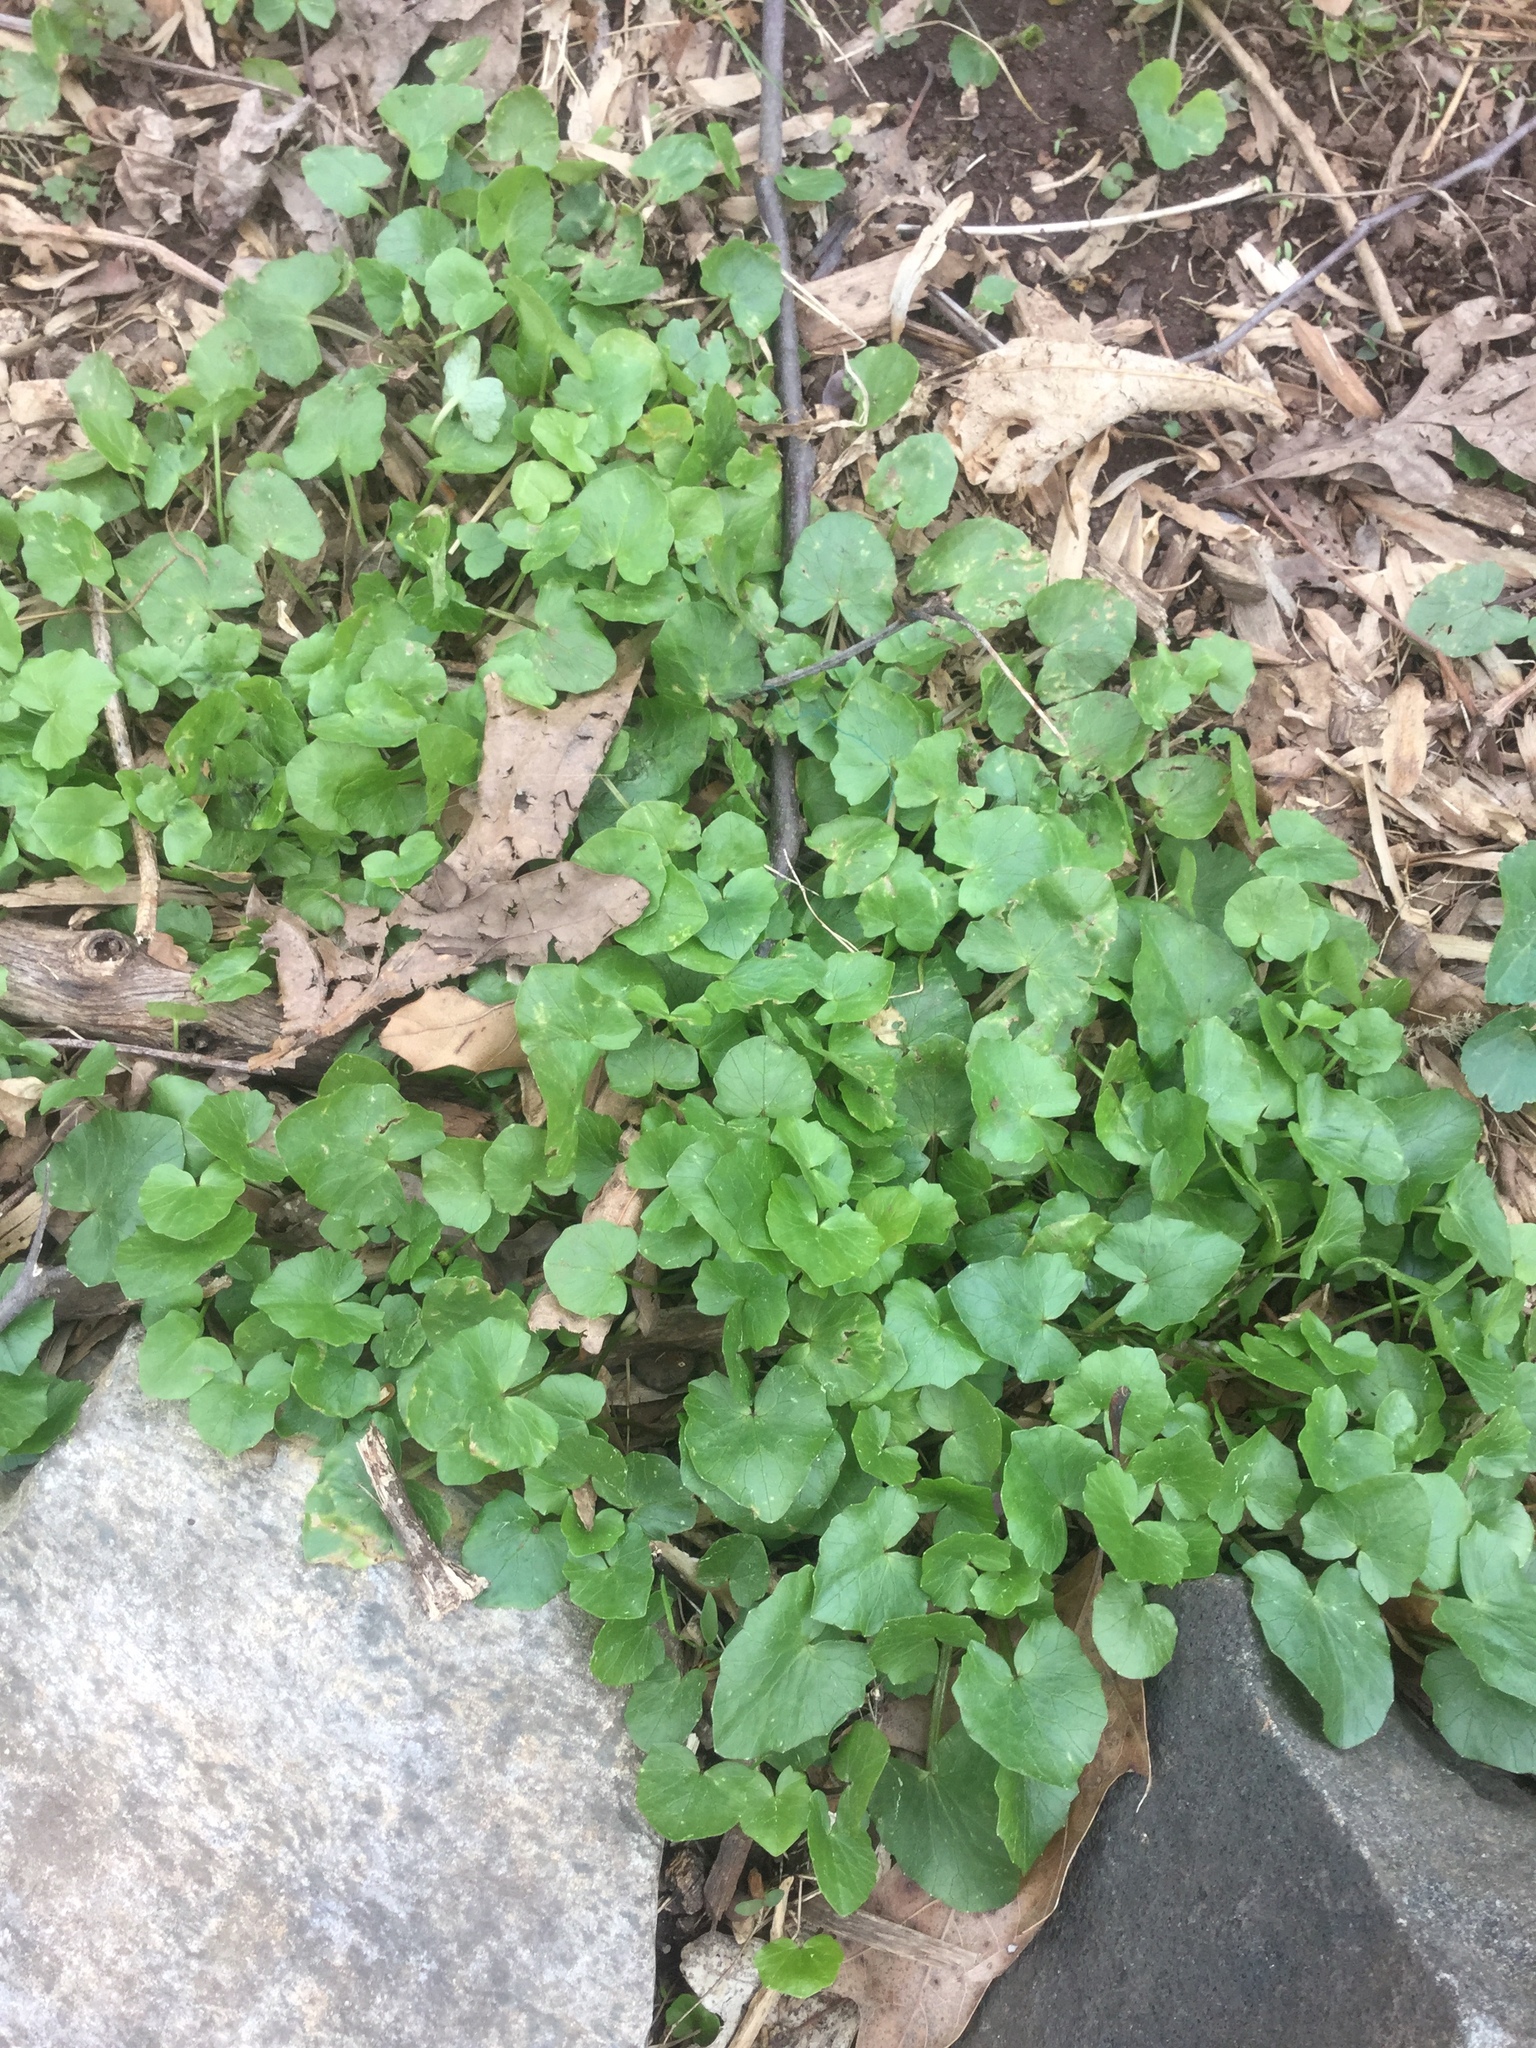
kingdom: Plantae
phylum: Tracheophyta
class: Magnoliopsida
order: Ranunculales
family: Ranunculaceae
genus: Ficaria
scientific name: Ficaria verna
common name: Lesser celandine
